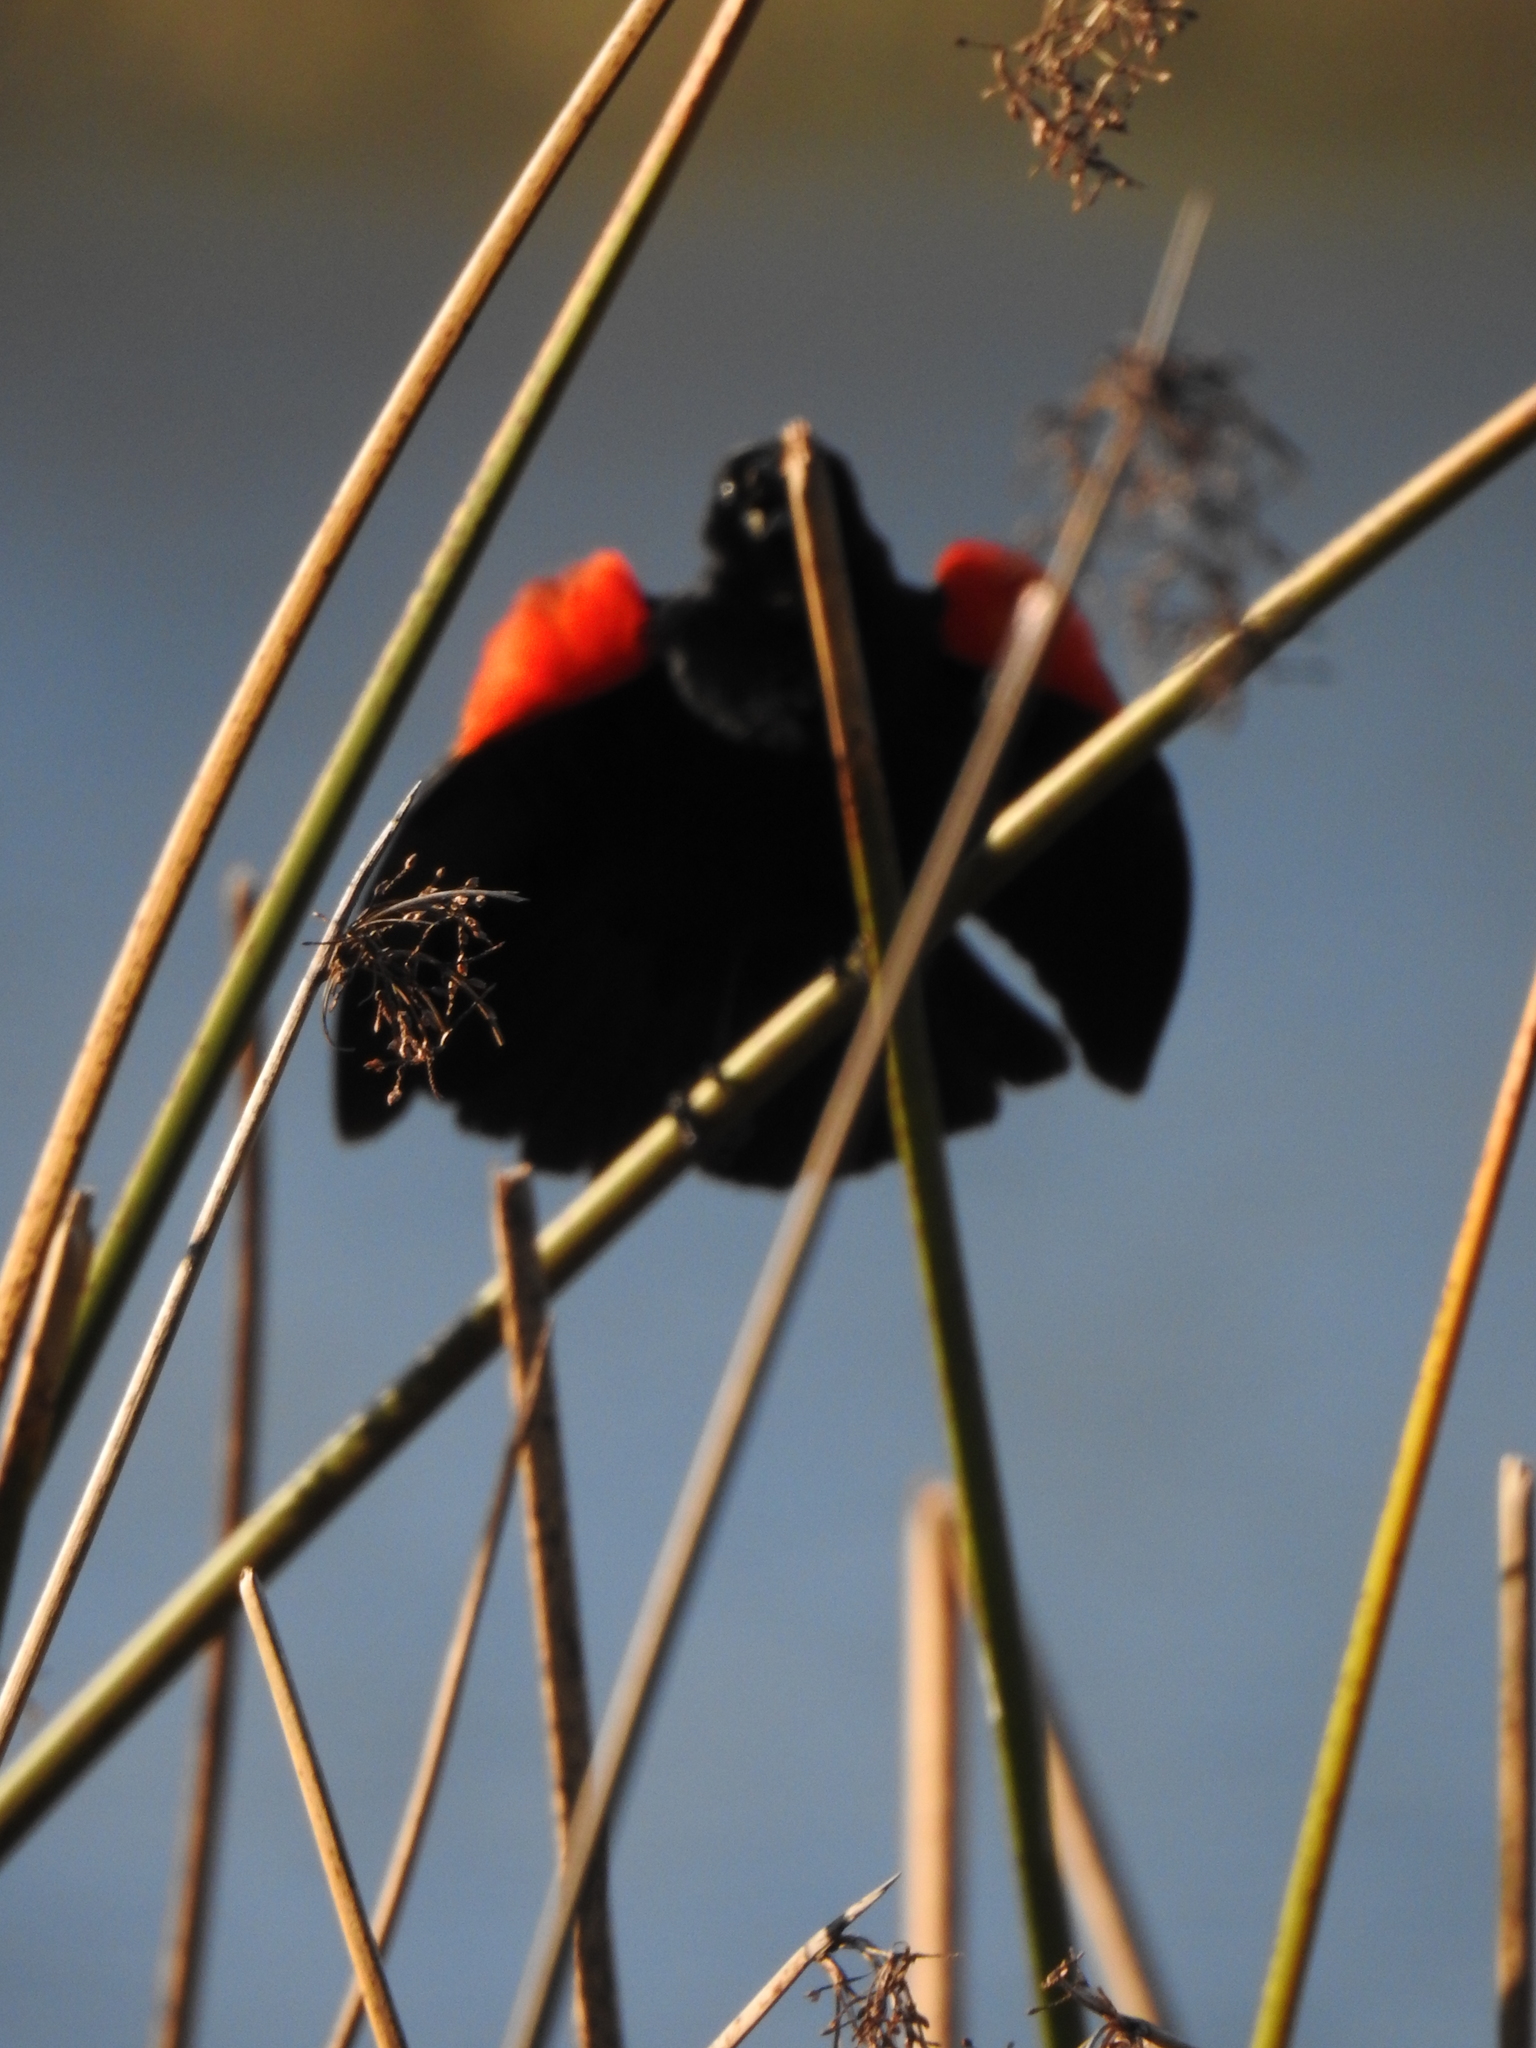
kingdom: Animalia
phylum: Chordata
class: Aves
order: Passeriformes
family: Icteridae
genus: Agelaius
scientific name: Agelaius phoeniceus
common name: Red-winged blackbird
